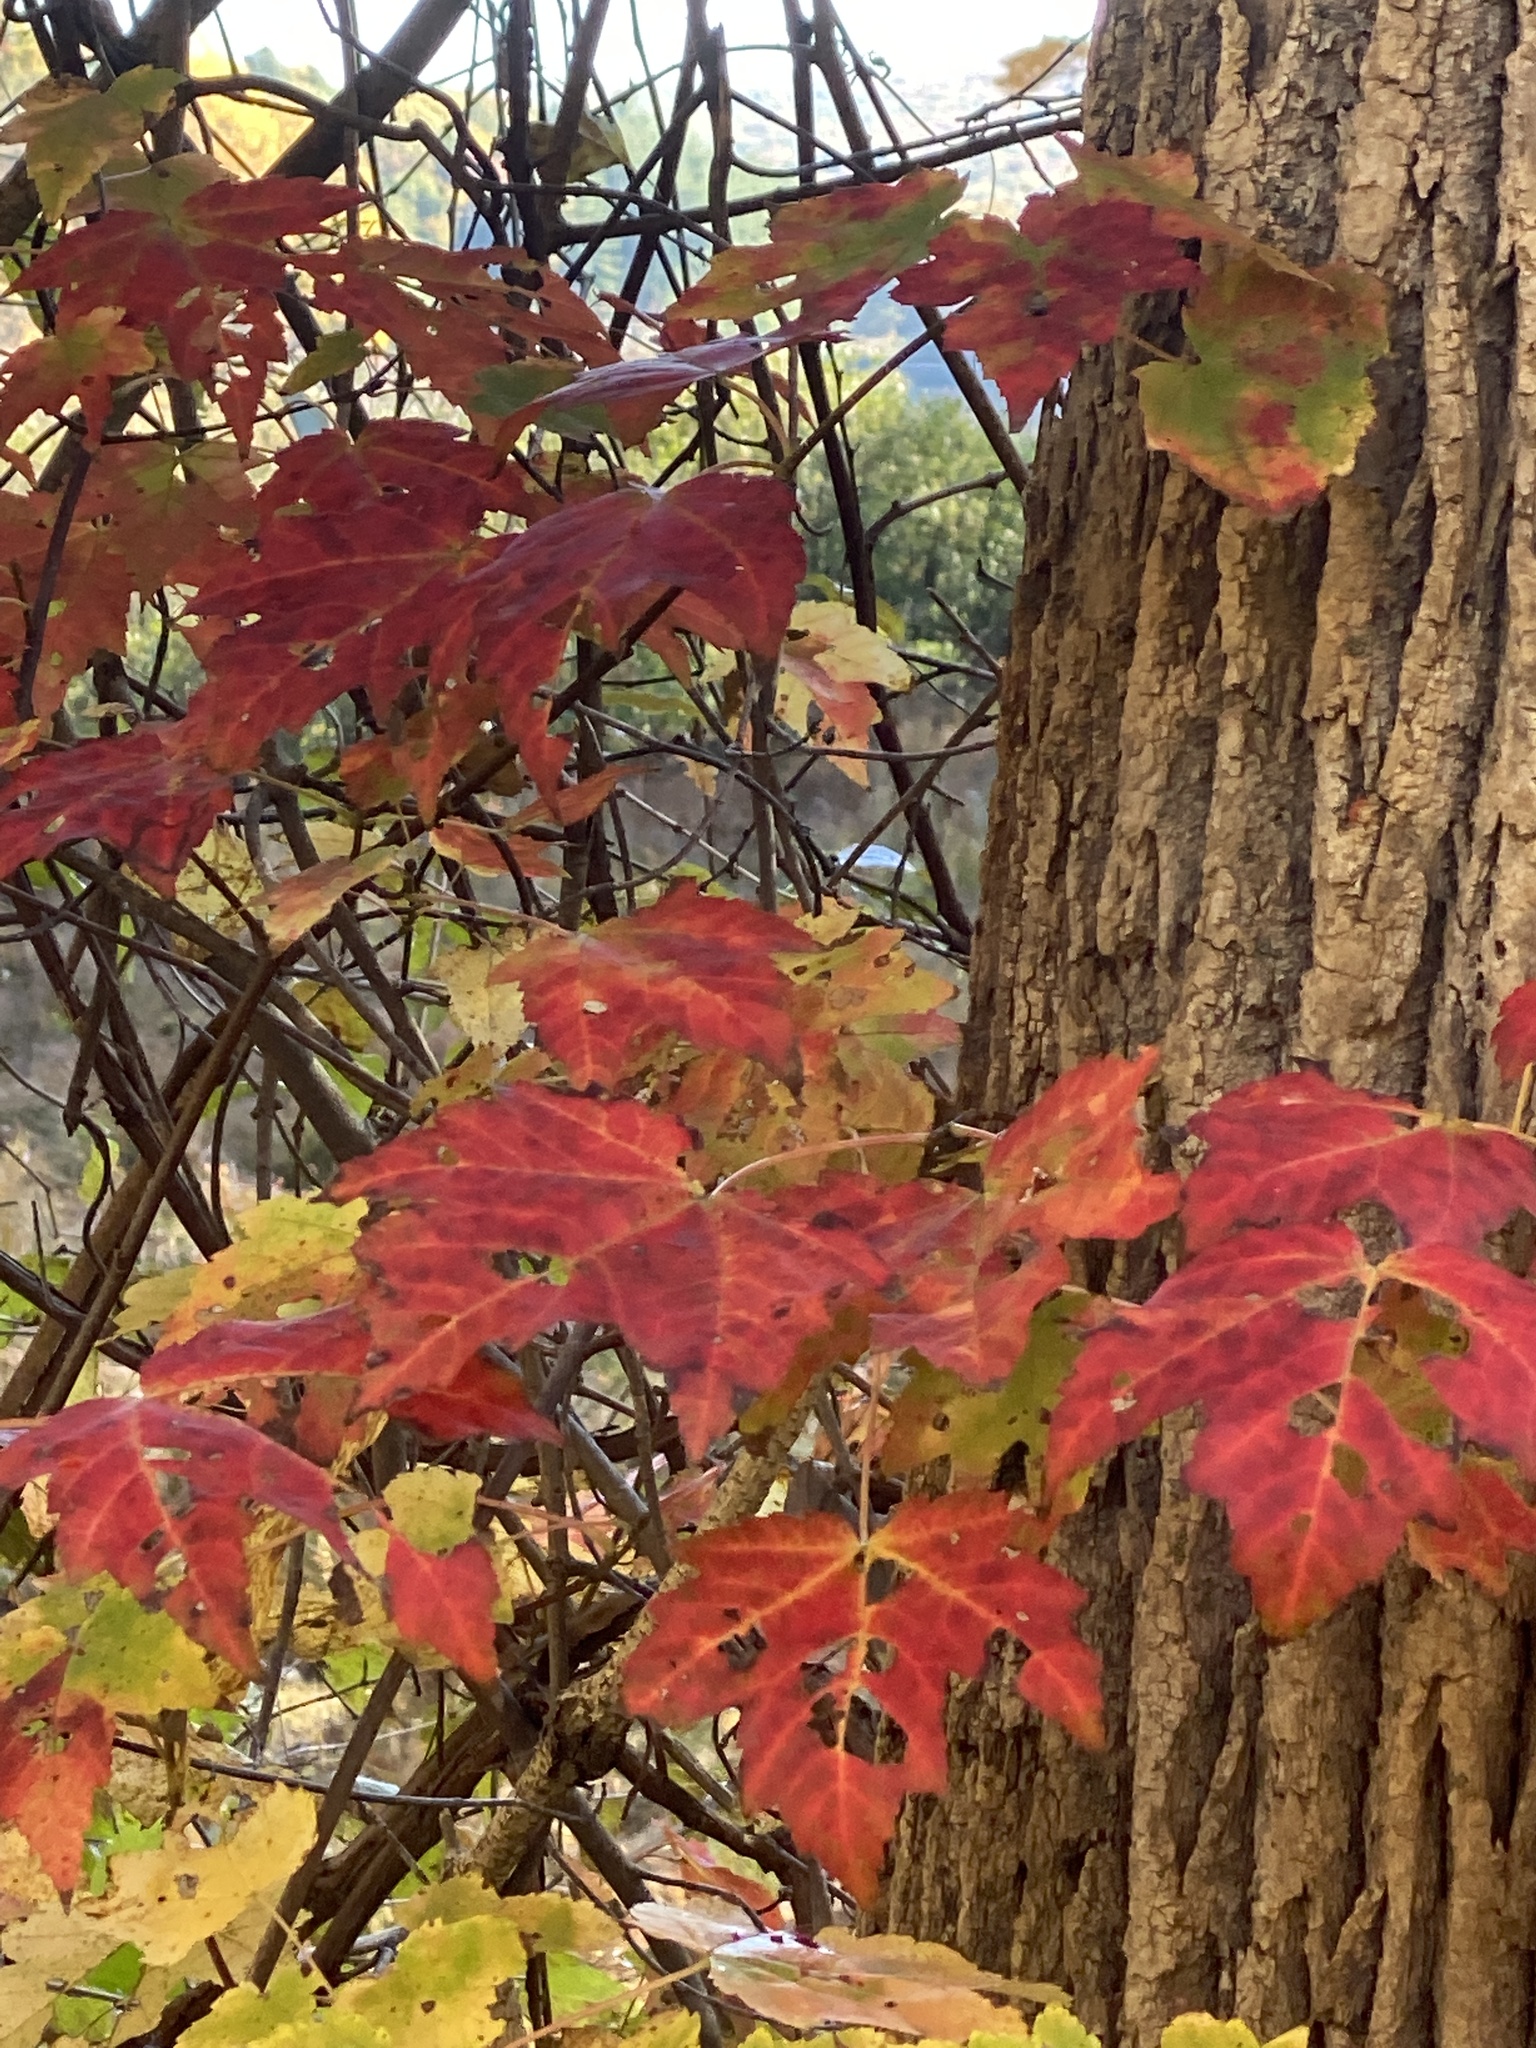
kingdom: Plantae
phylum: Tracheophyta
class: Magnoliopsida
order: Sapindales
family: Sapindaceae
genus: Acer
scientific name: Acer rubrum
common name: Red maple
